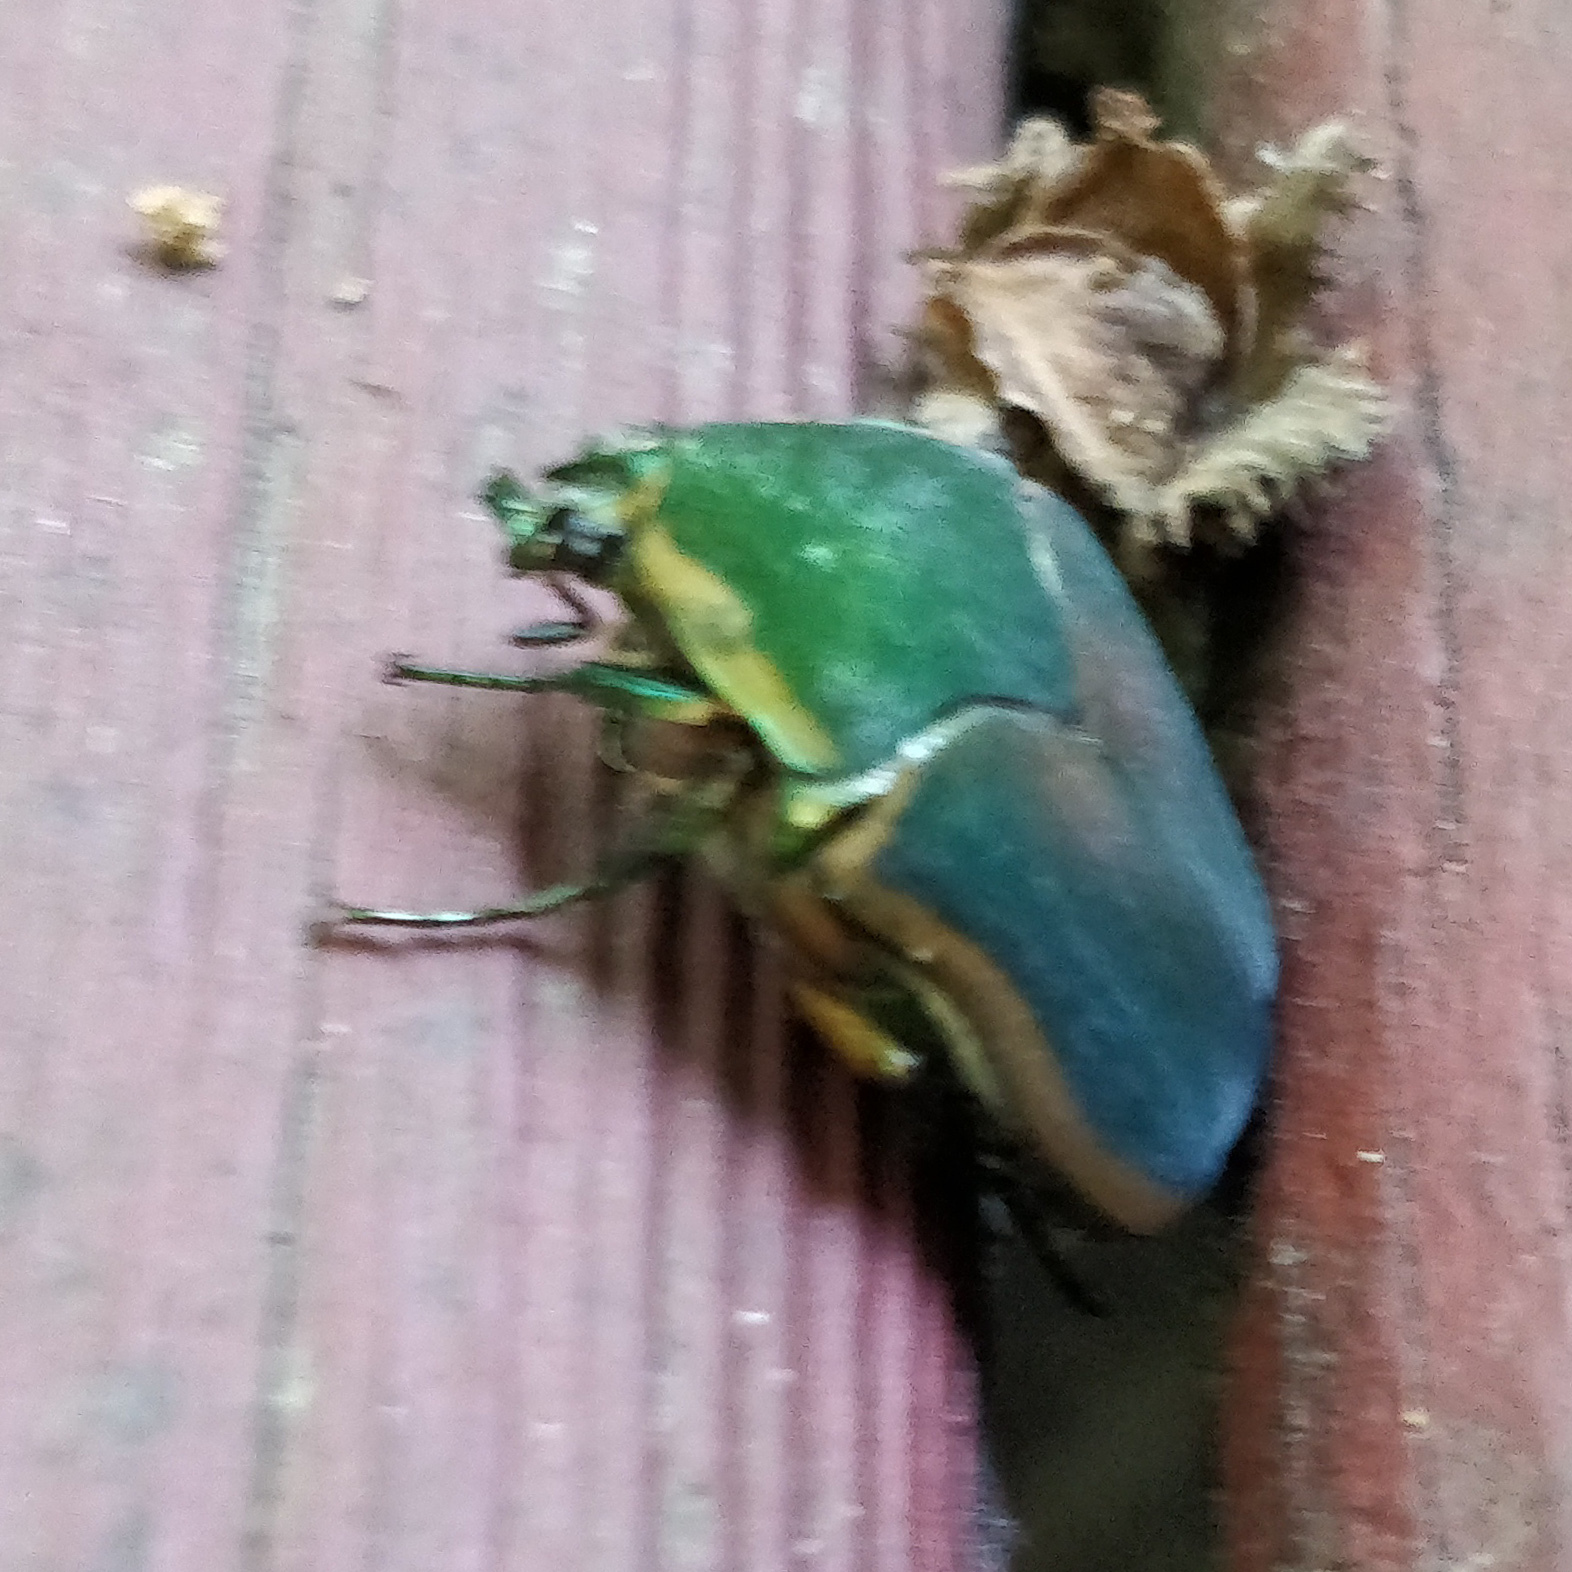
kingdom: Animalia
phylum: Arthropoda
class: Insecta
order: Coleoptera
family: Scarabaeidae
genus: Cotinis
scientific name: Cotinis nitida
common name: Common green june beetle
